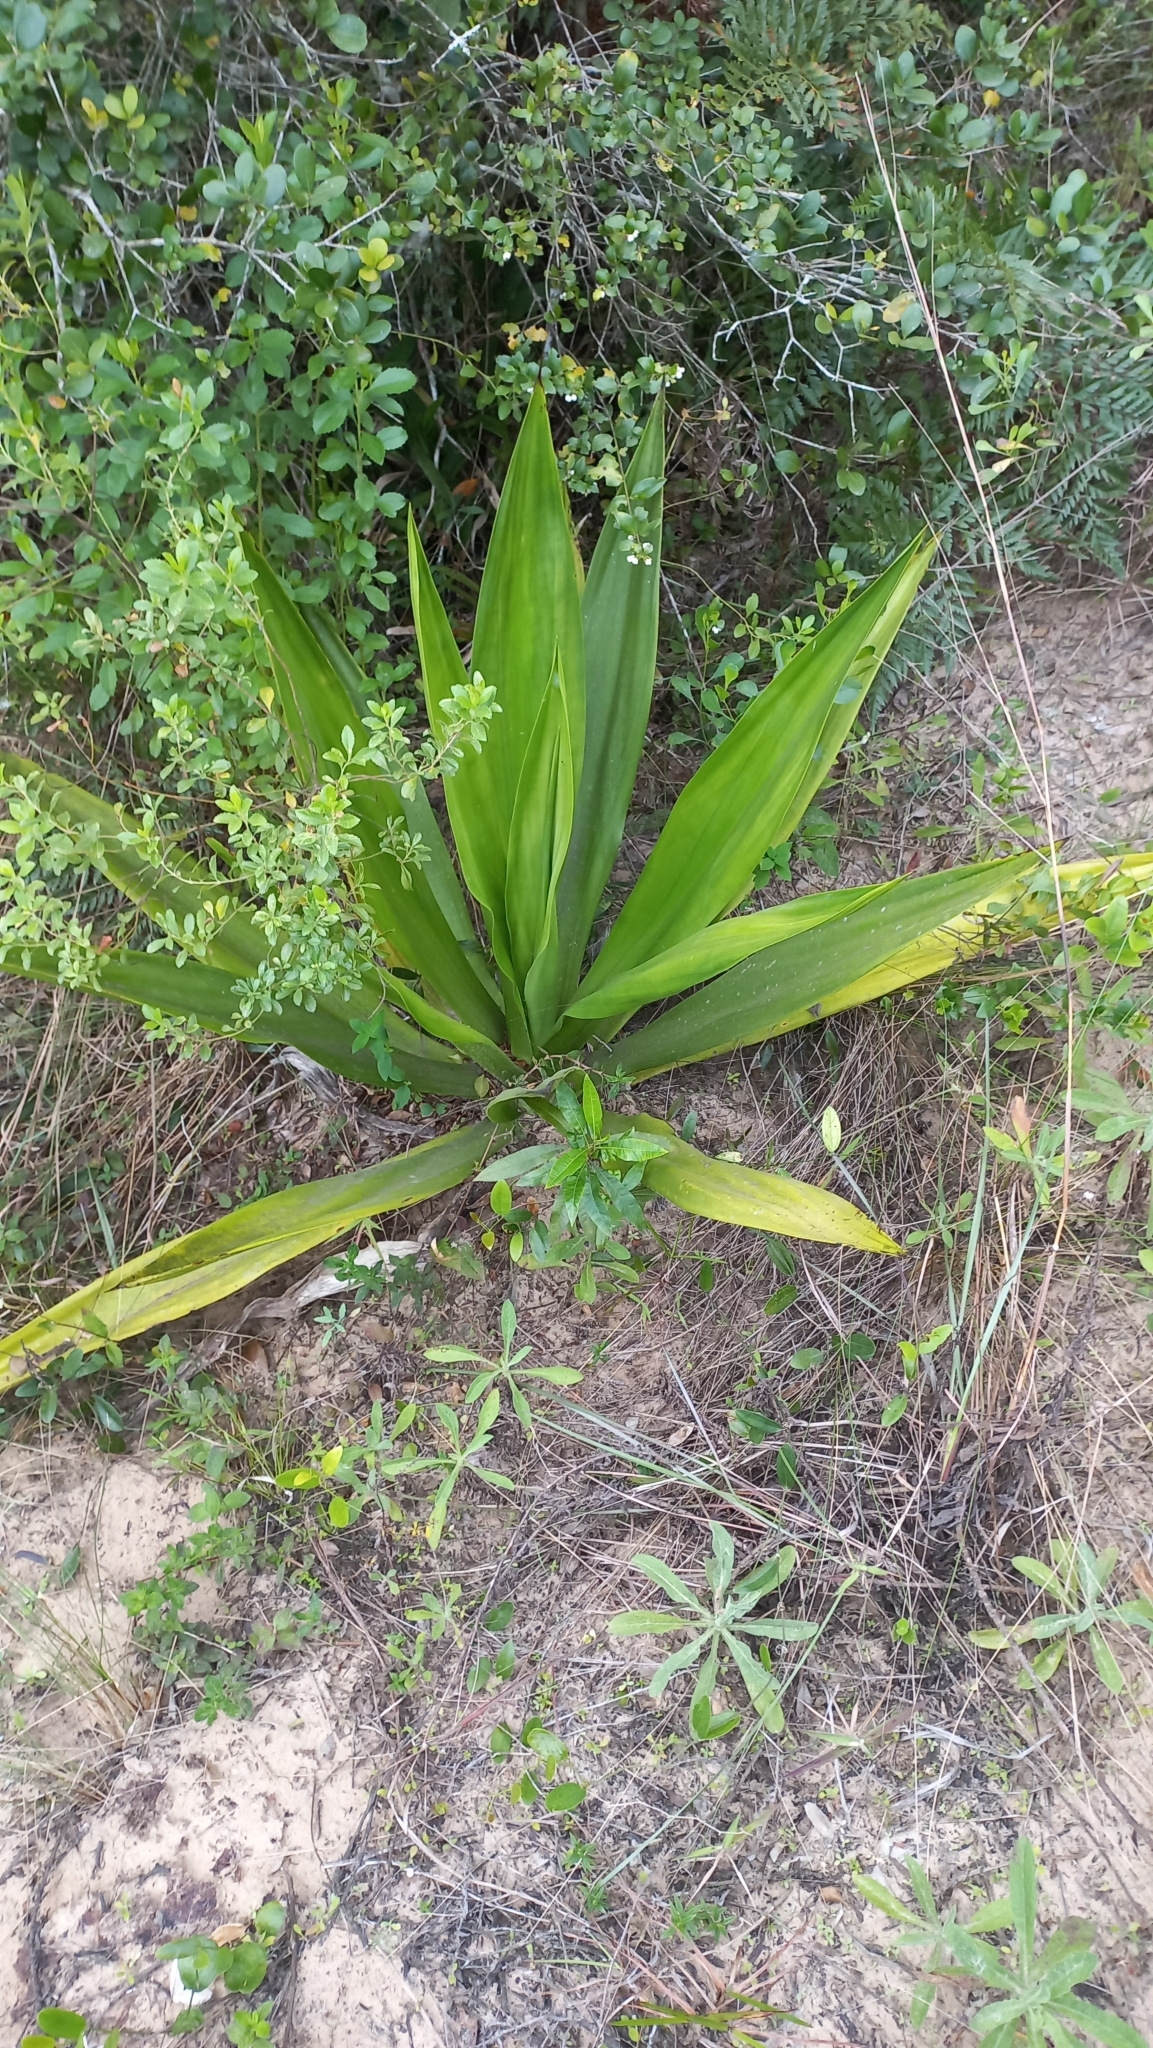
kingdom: Plantae
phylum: Tracheophyta
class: Liliopsida
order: Asparagales
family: Asparagaceae
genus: Furcraea
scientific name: Furcraea foetida
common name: Mauritius hemp
